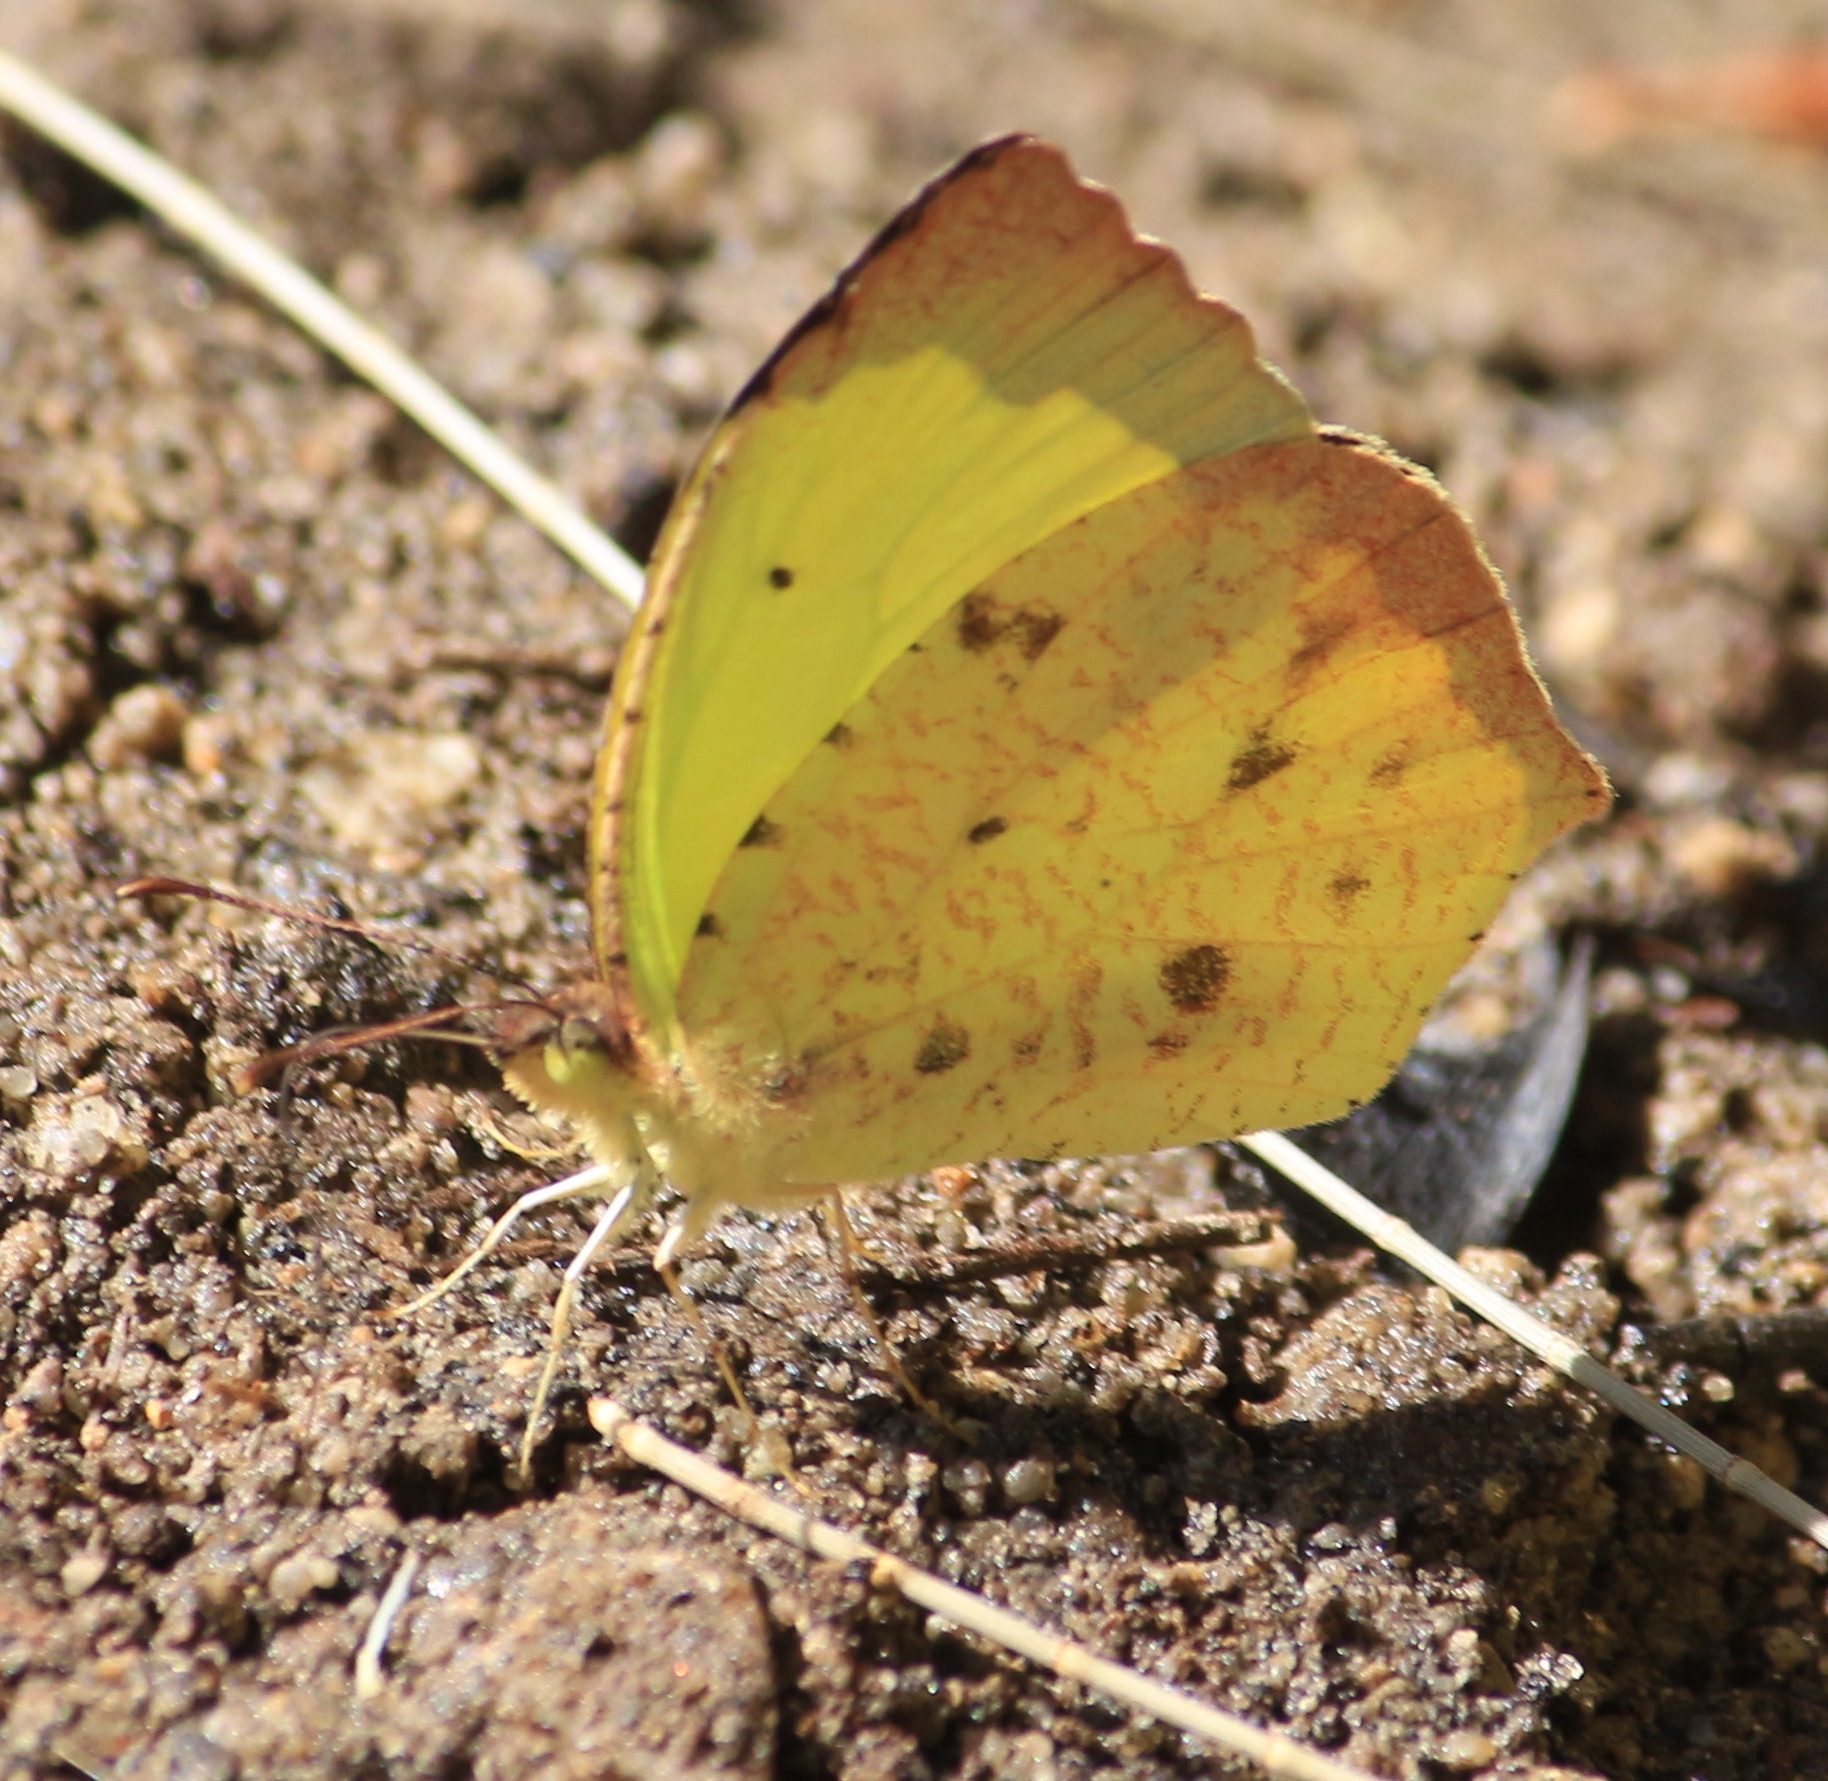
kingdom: Animalia
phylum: Arthropoda
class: Insecta
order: Lepidoptera
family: Pieridae
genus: Abaeis
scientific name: Abaeis salome
